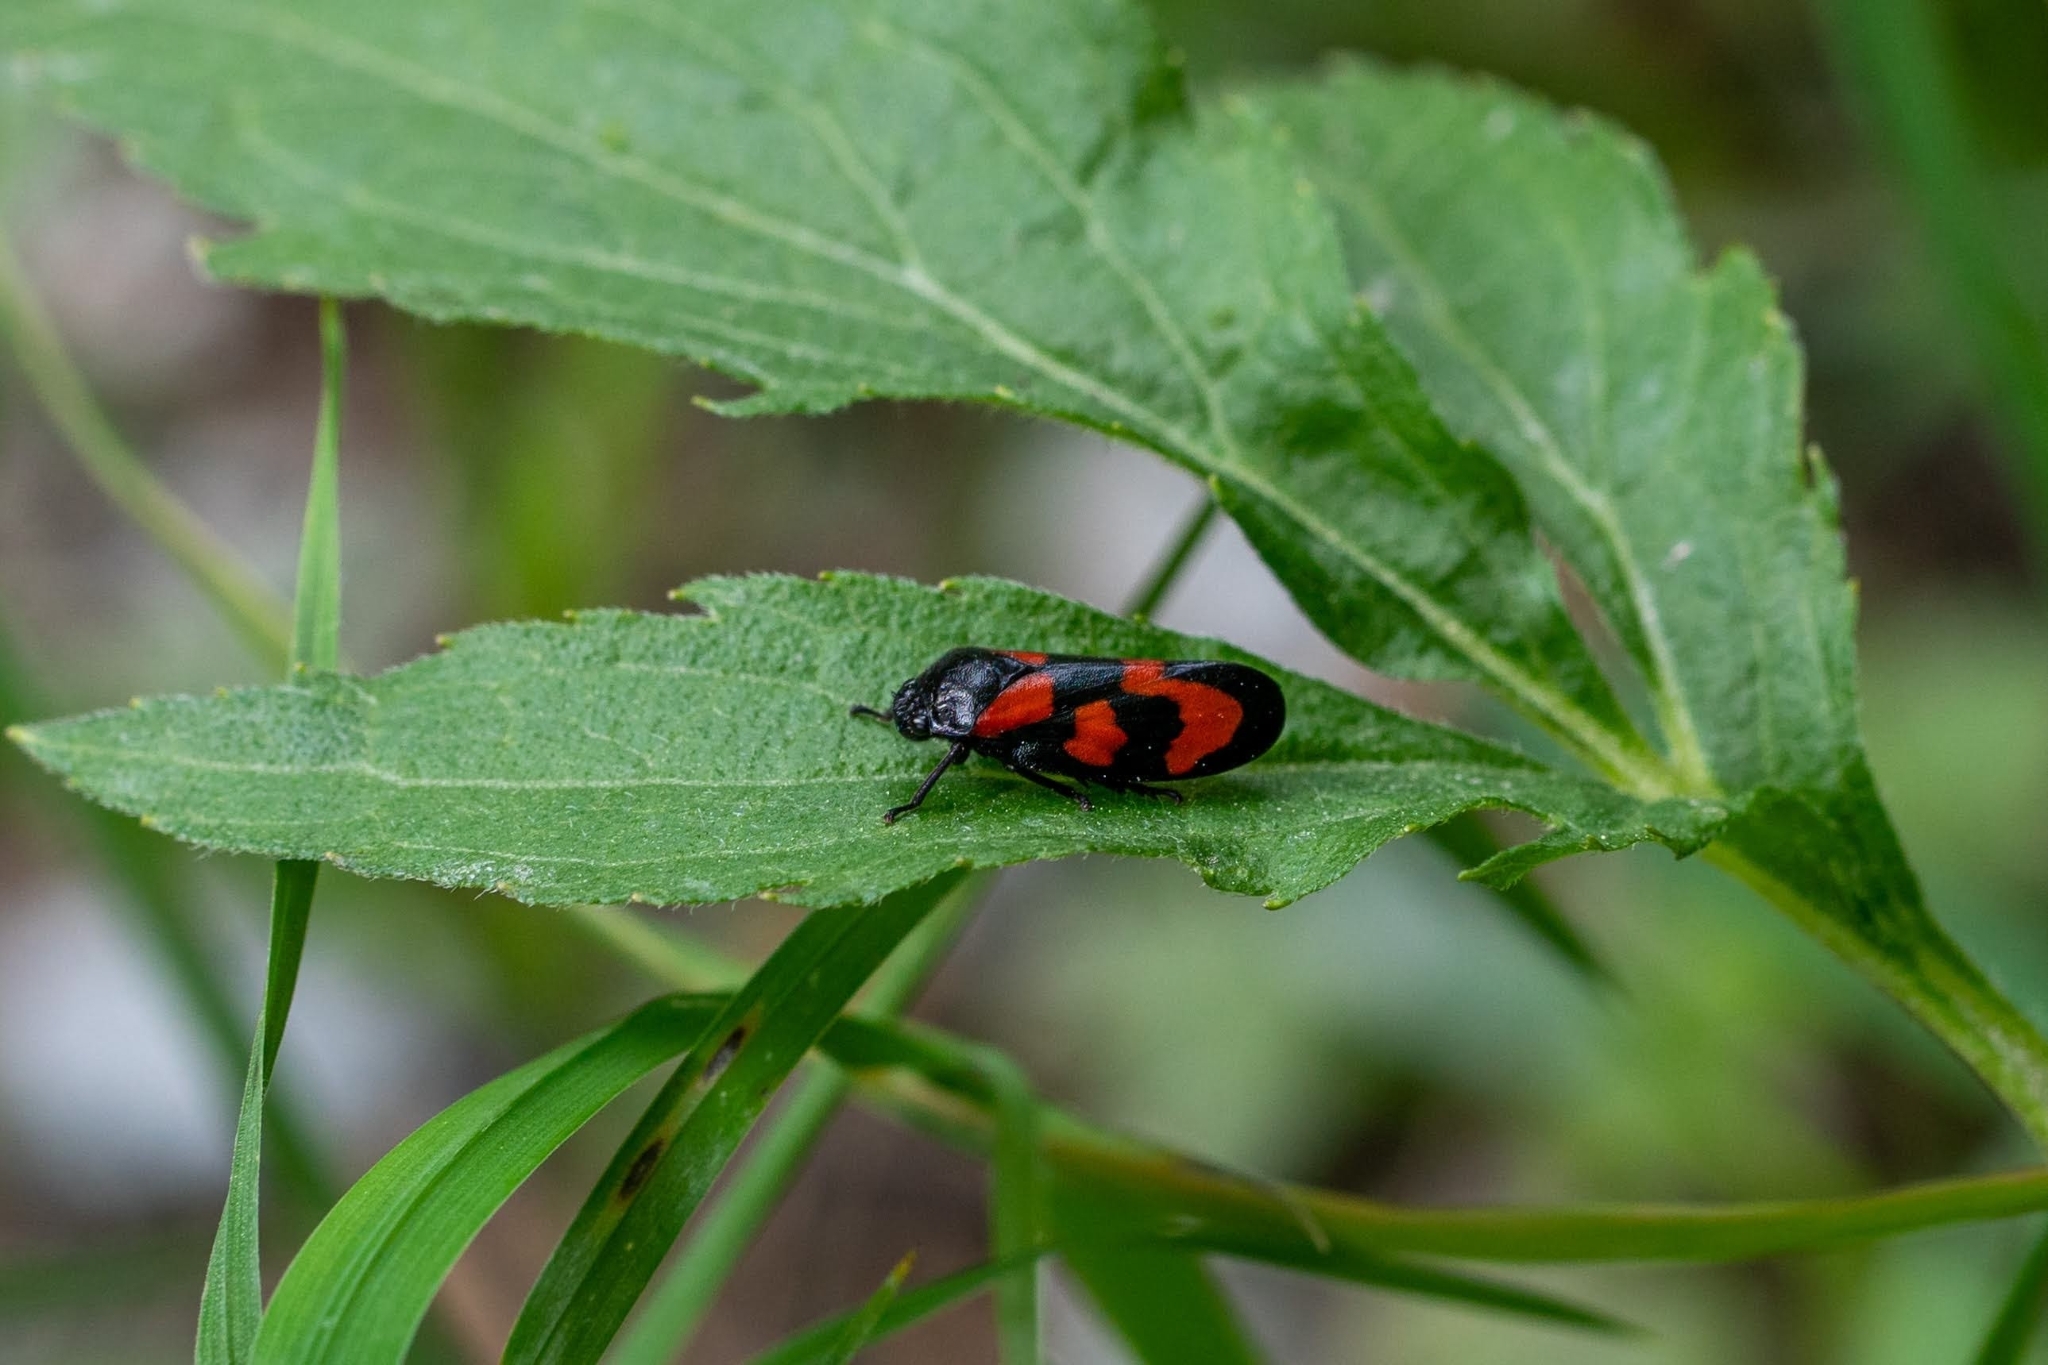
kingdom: Animalia
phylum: Arthropoda
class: Insecta
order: Hemiptera
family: Cercopidae
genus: Cercopis
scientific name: Cercopis vulnerata
